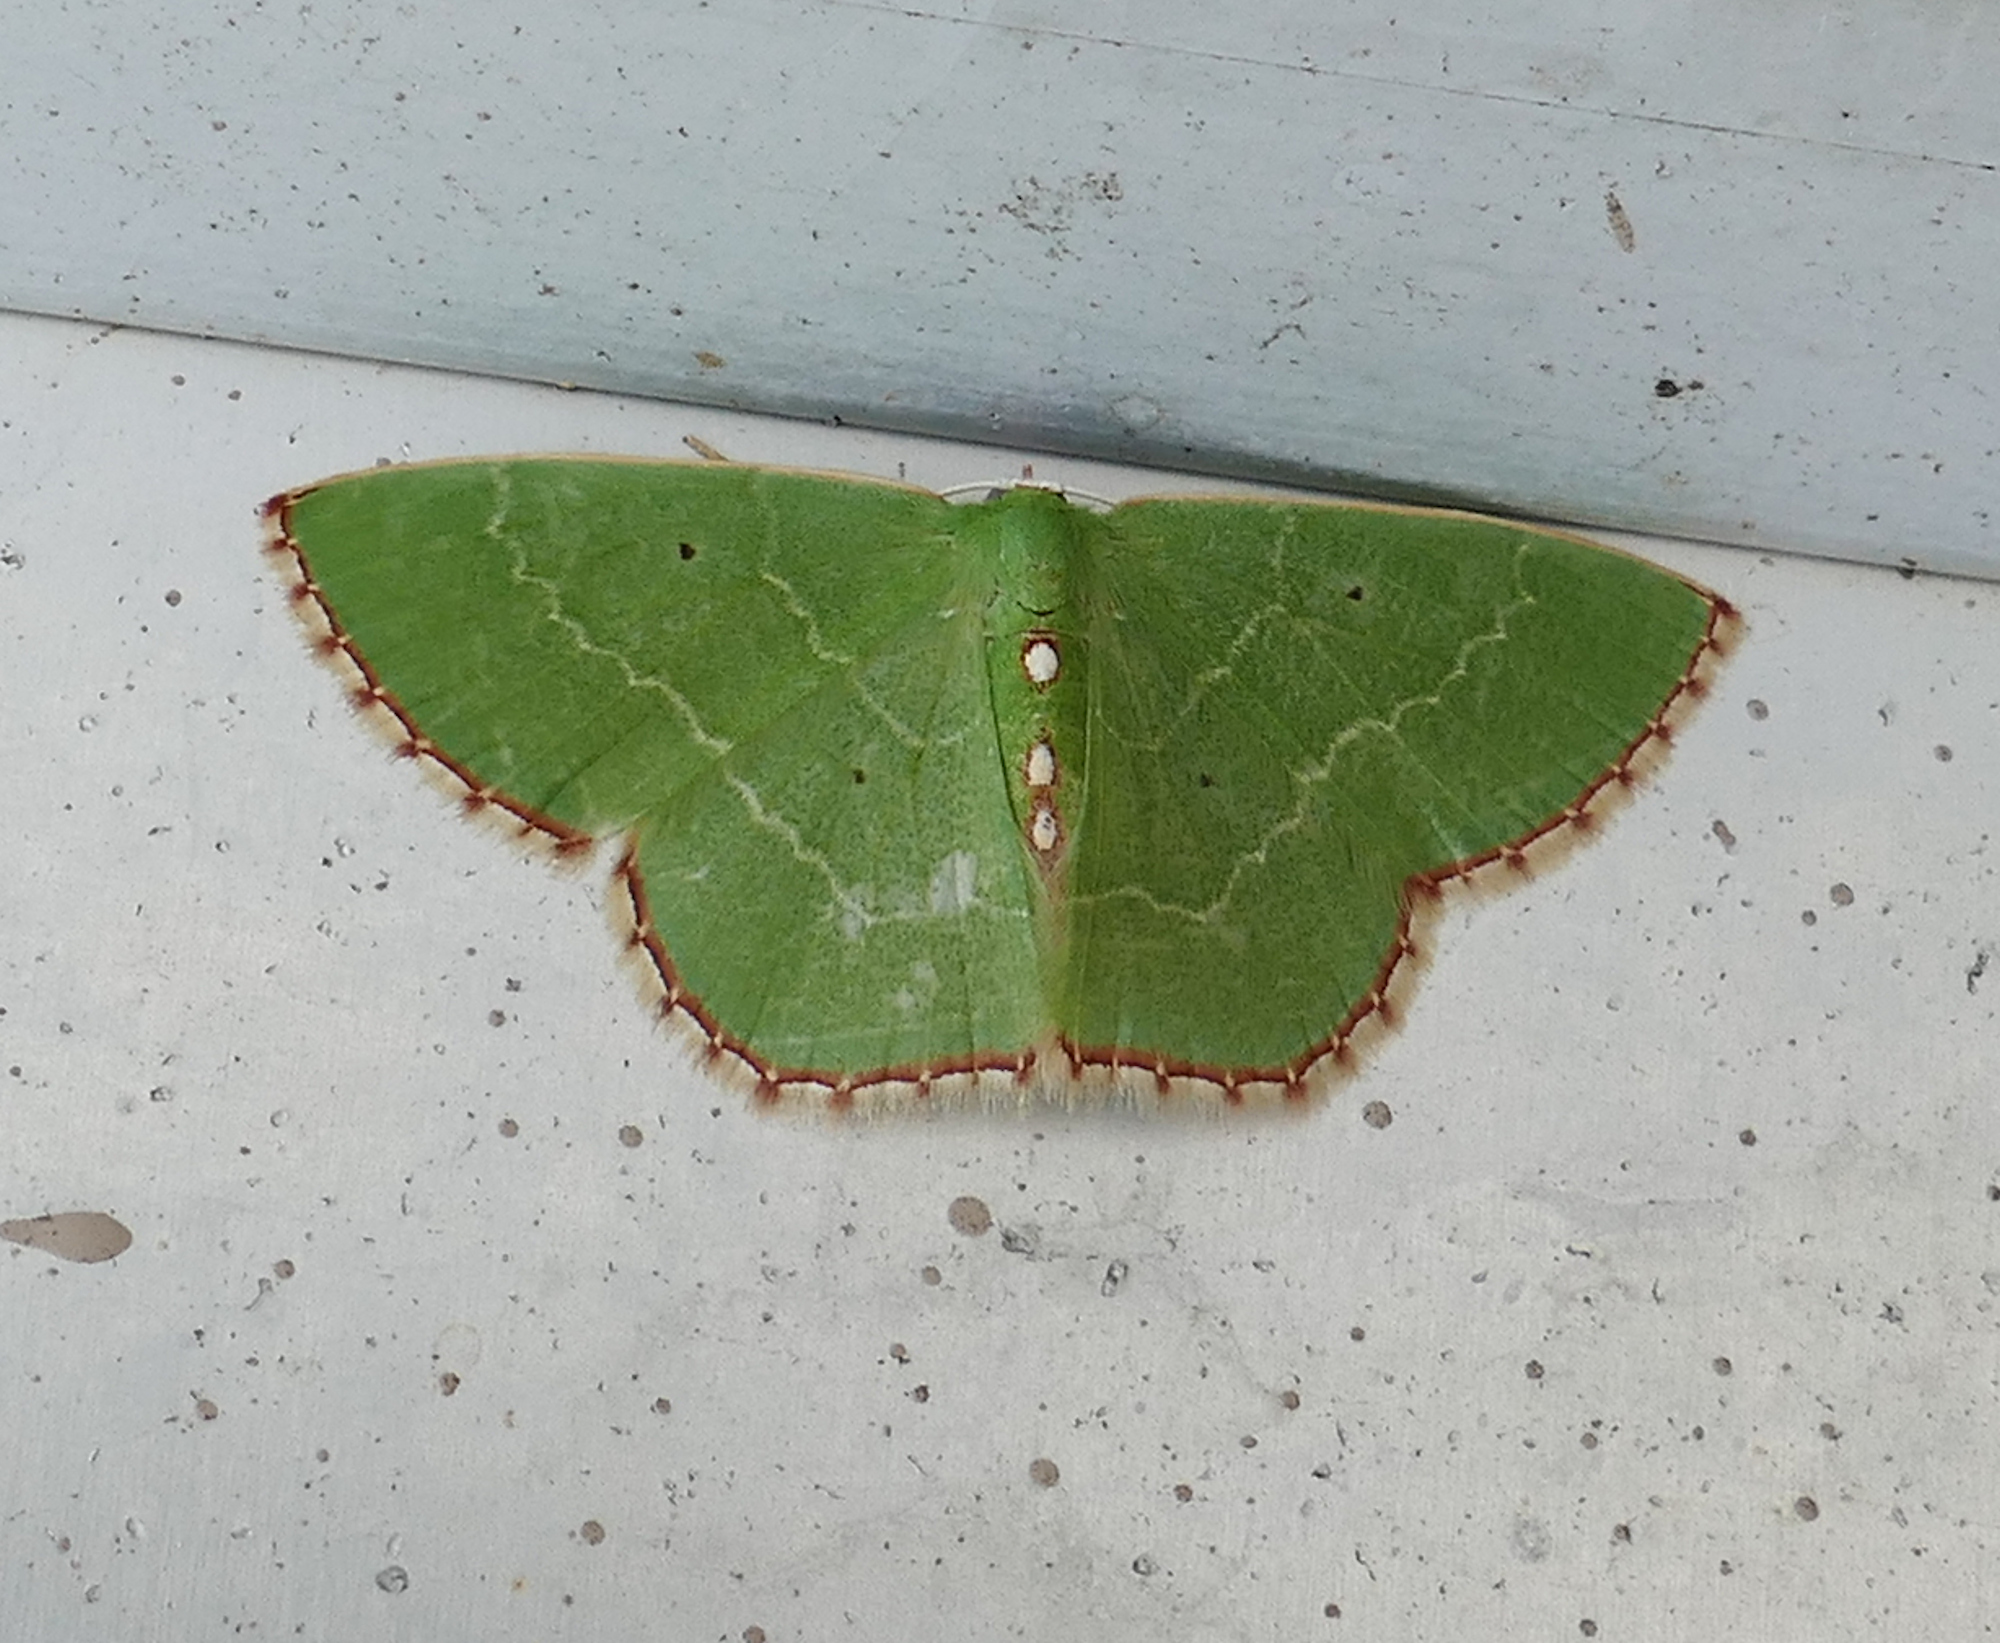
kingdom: Animalia
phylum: Arthropoda
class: Insecta
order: Lepidoptera
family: Geometridae
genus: Nemoria
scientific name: Nemoria lixaria
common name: Red-bordered emerald
